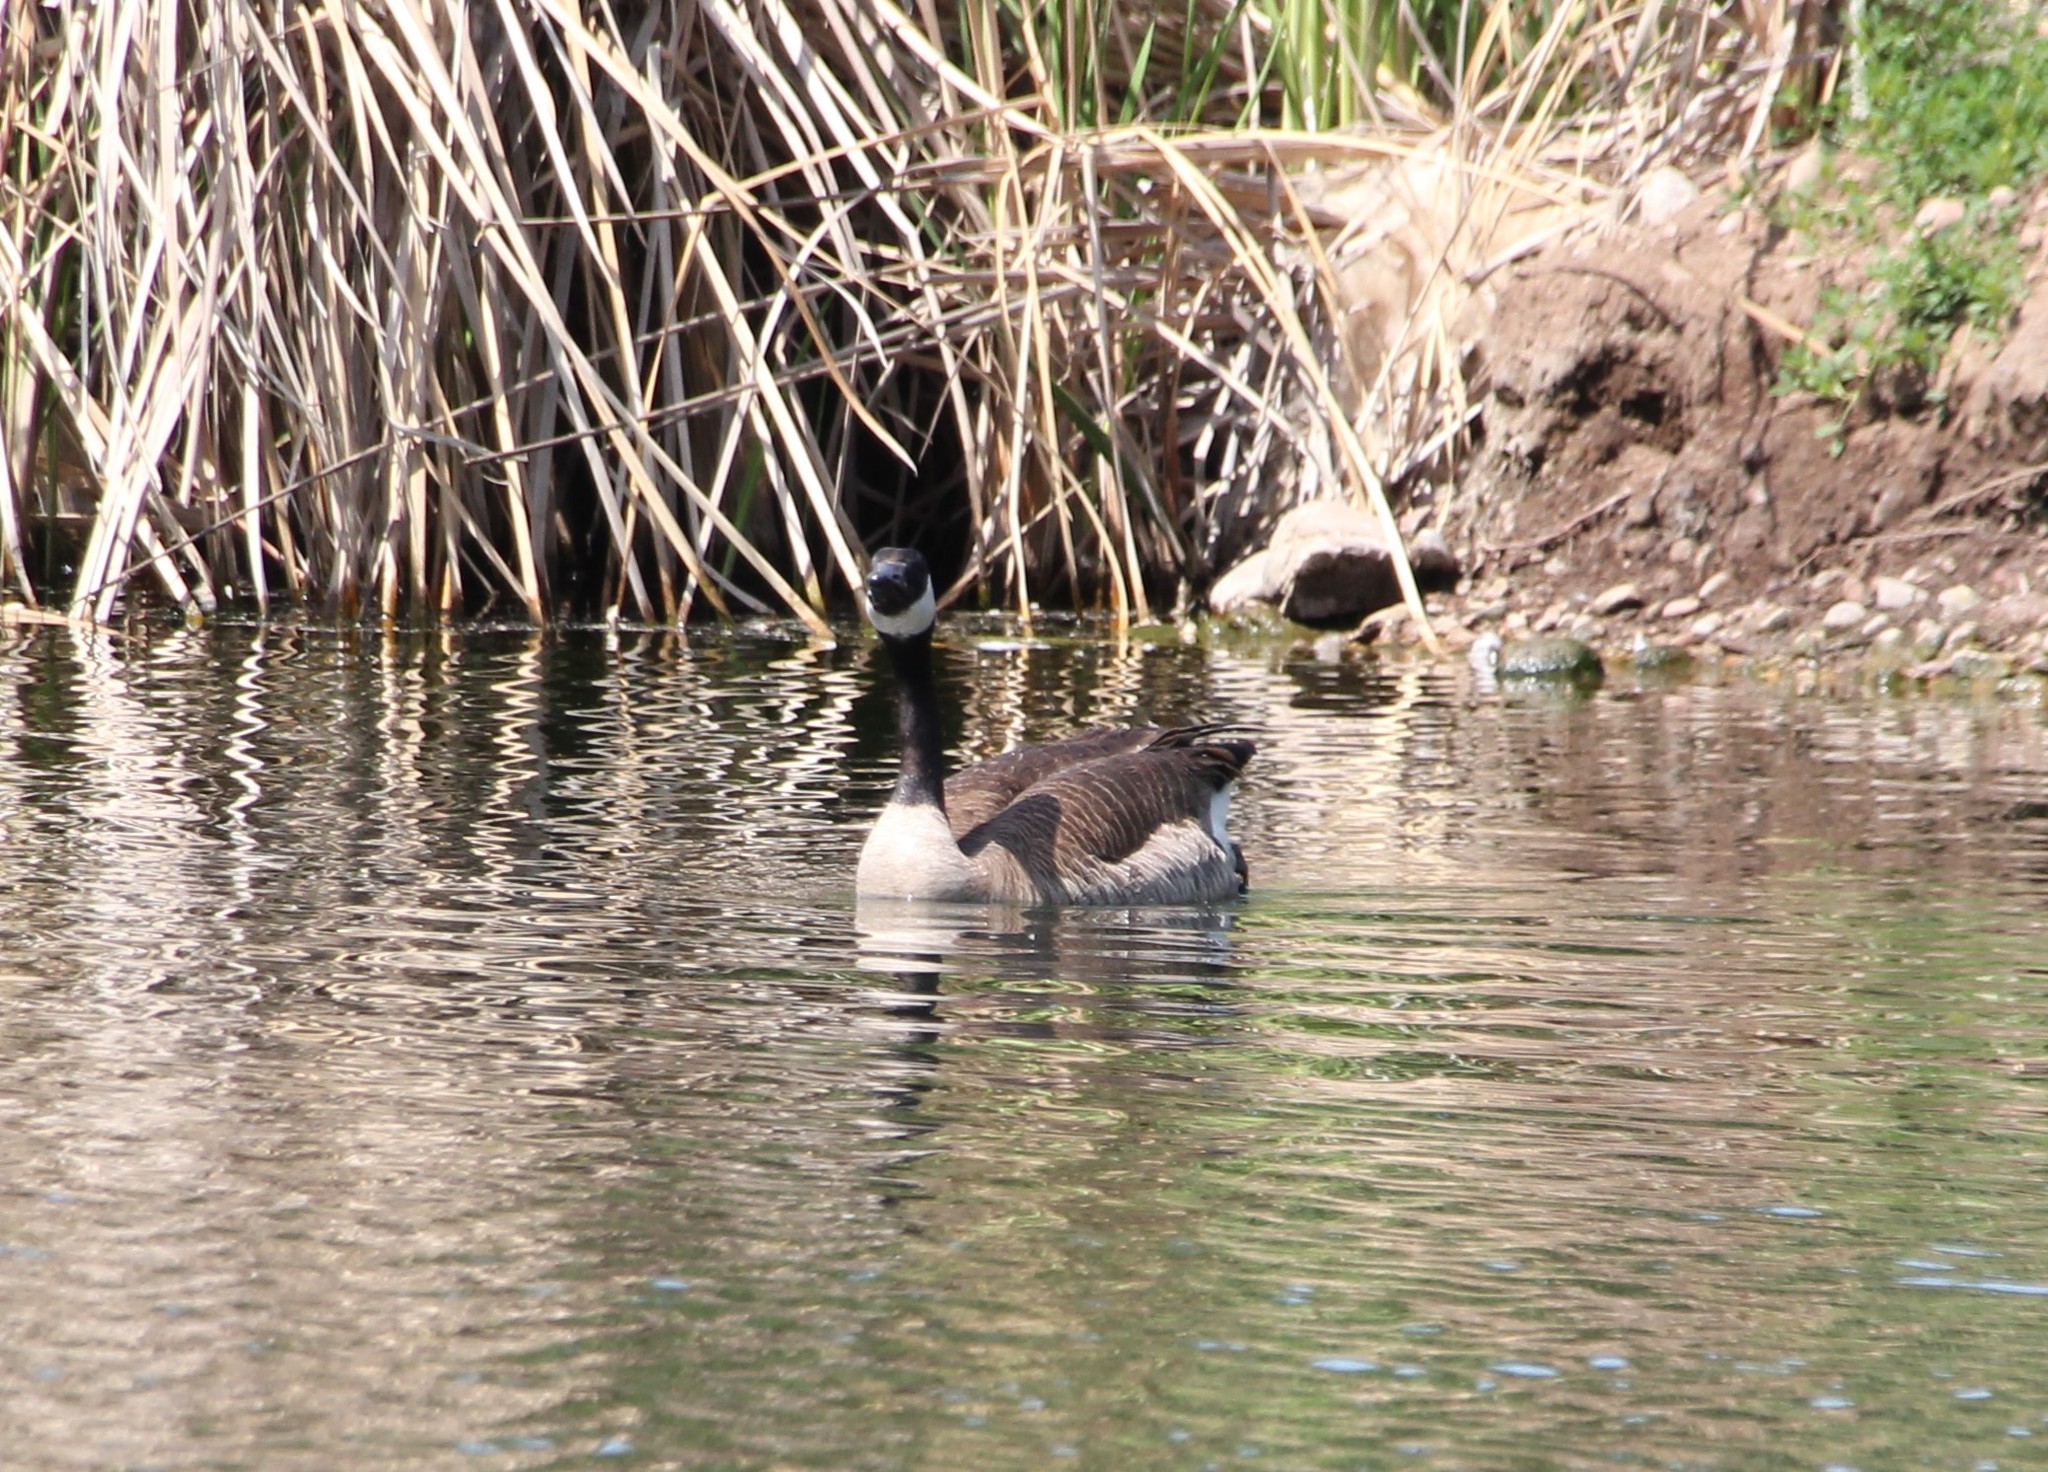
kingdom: Animalia
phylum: Chordata
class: Aves
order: Anseriformes
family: Anatidae
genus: Branta
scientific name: Branta canadensis
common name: Canada goose
